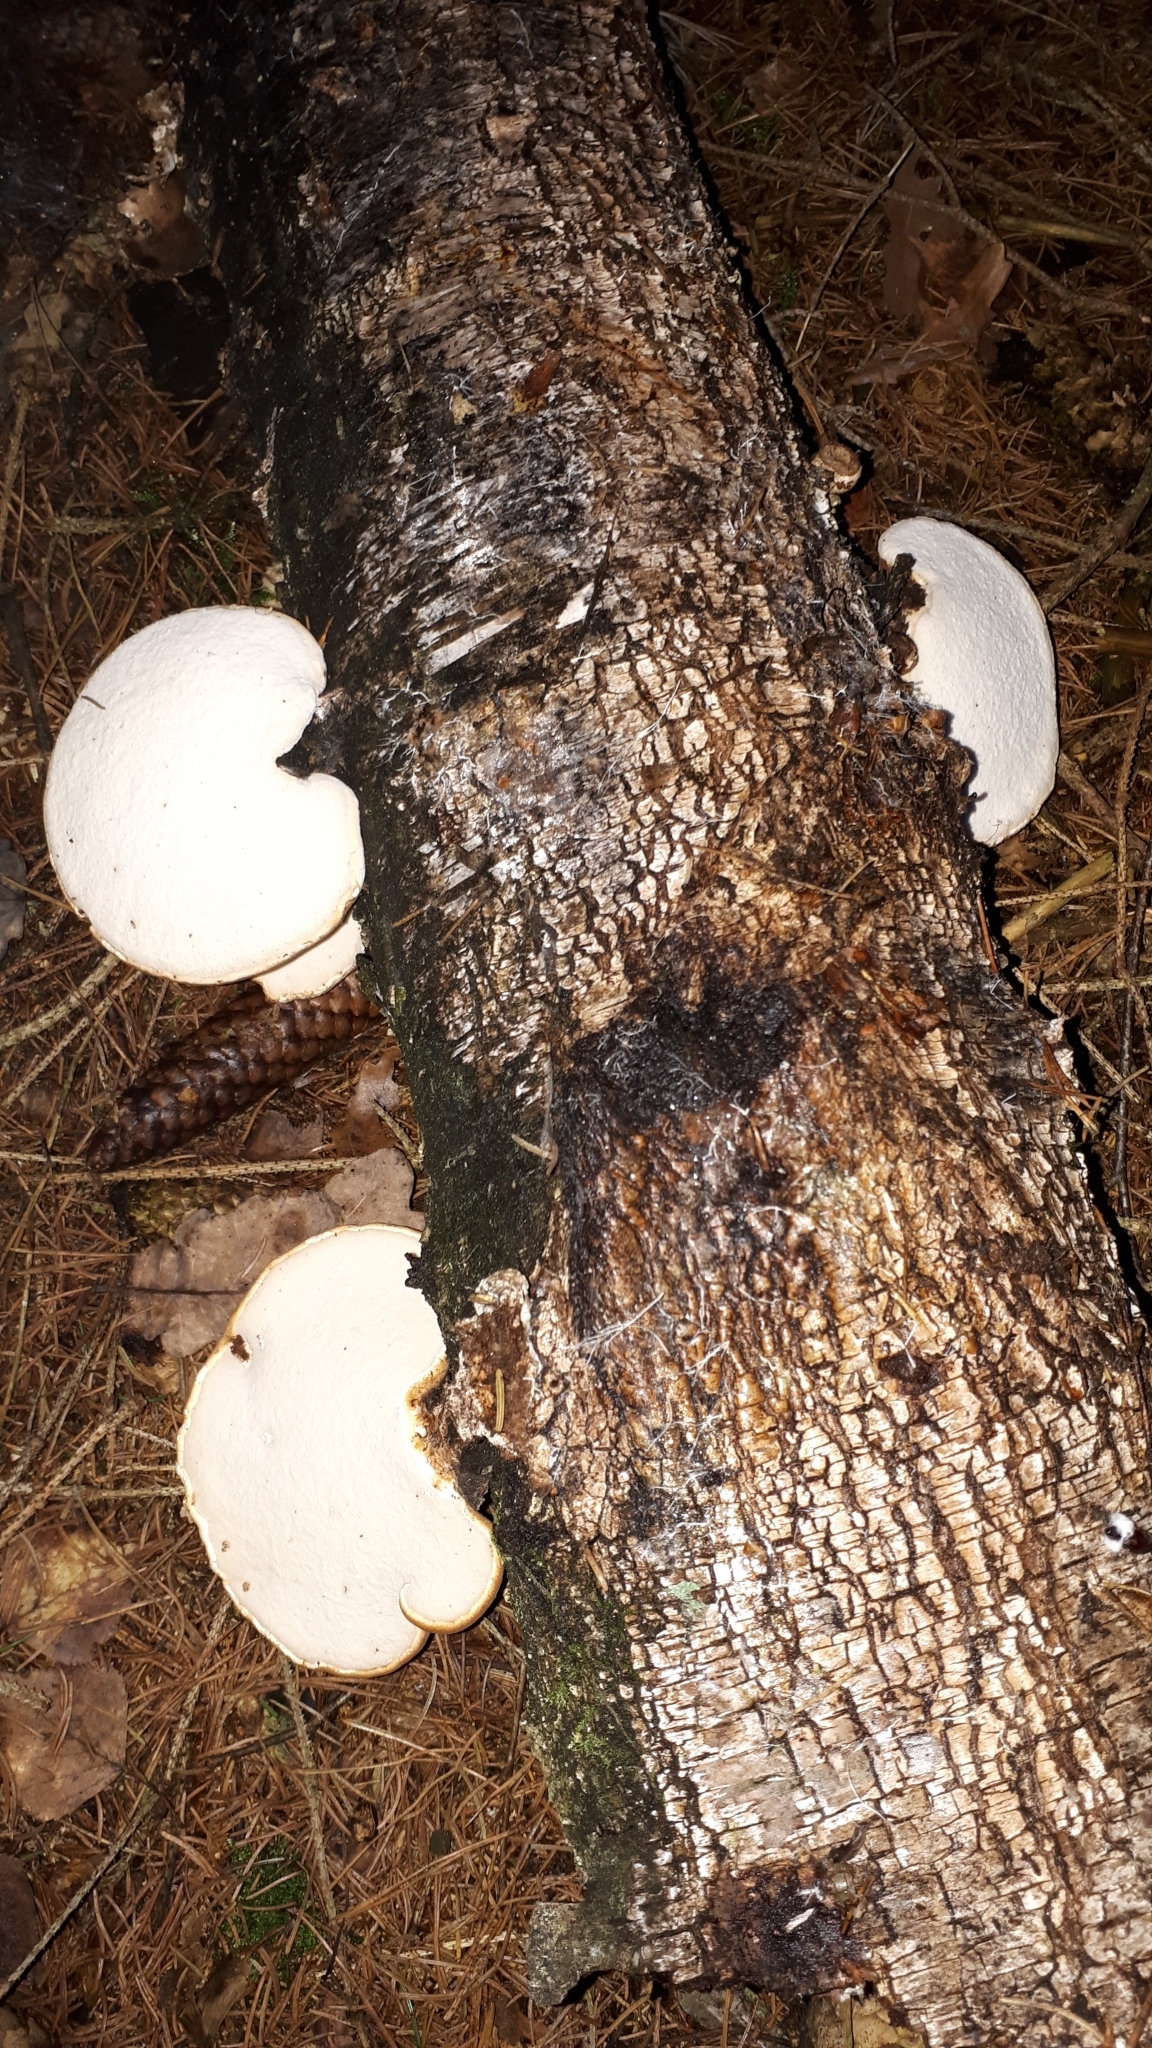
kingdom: Fungi
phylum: Basidiomycota
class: Agaricomycetes
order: Polyporales
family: Fomitopsidaceae
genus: Fomitopsis
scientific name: Fomitopsis betulina
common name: Birch polypore
